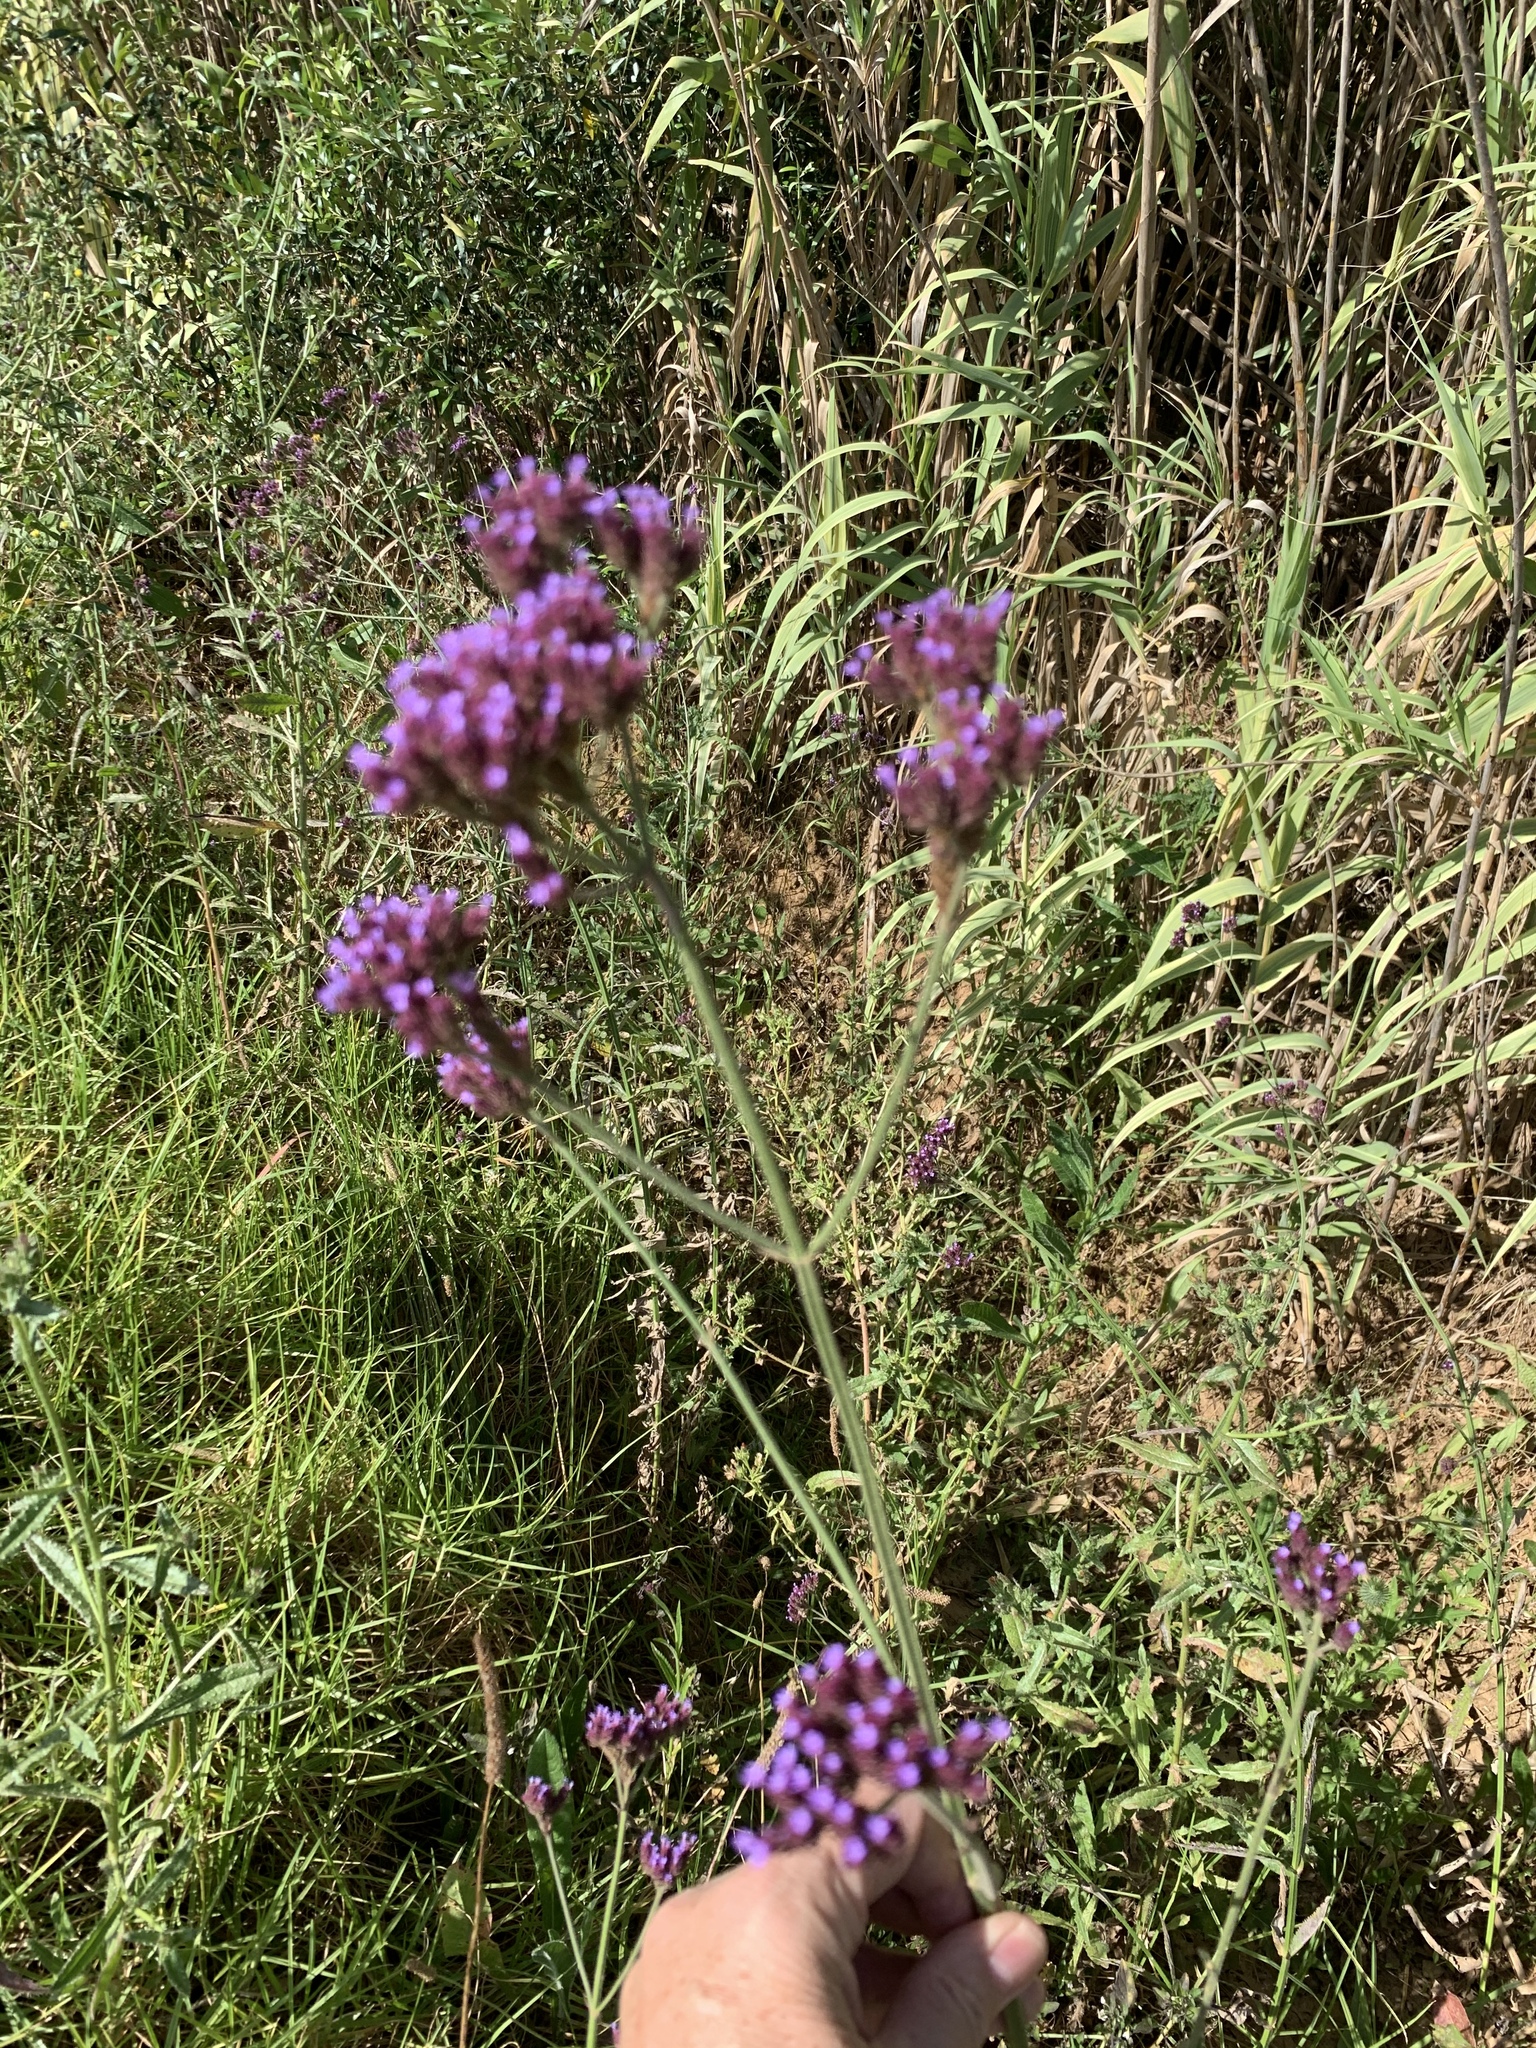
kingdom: Plantae
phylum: Tracheophyta
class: Magnoliopsida
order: Lamiales
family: Verbenaceae
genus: Verbena
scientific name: Verbena bonariensis
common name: Purpletop vervain
